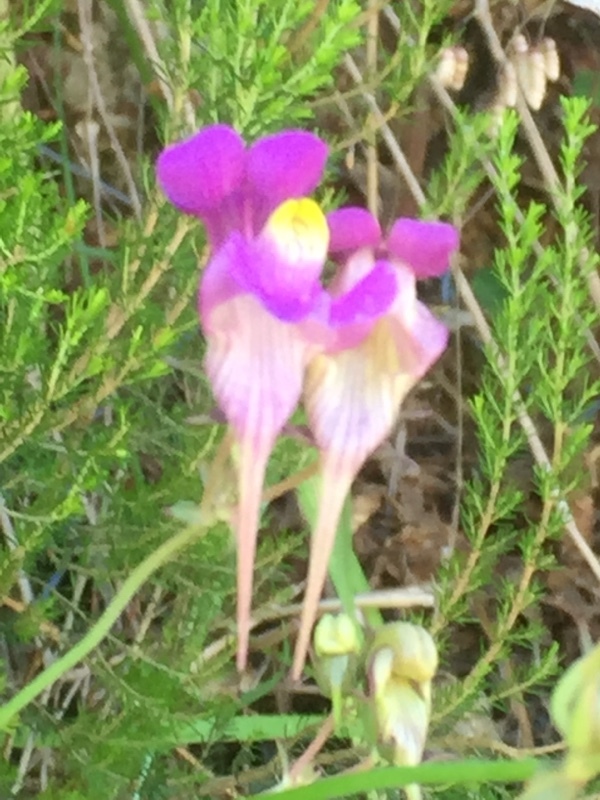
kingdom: Plantae
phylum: Tracheophyta
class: Magnoliopsida
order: Lamiales
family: Plantaginaceae
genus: Linaria
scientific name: Linaria triornithophora
